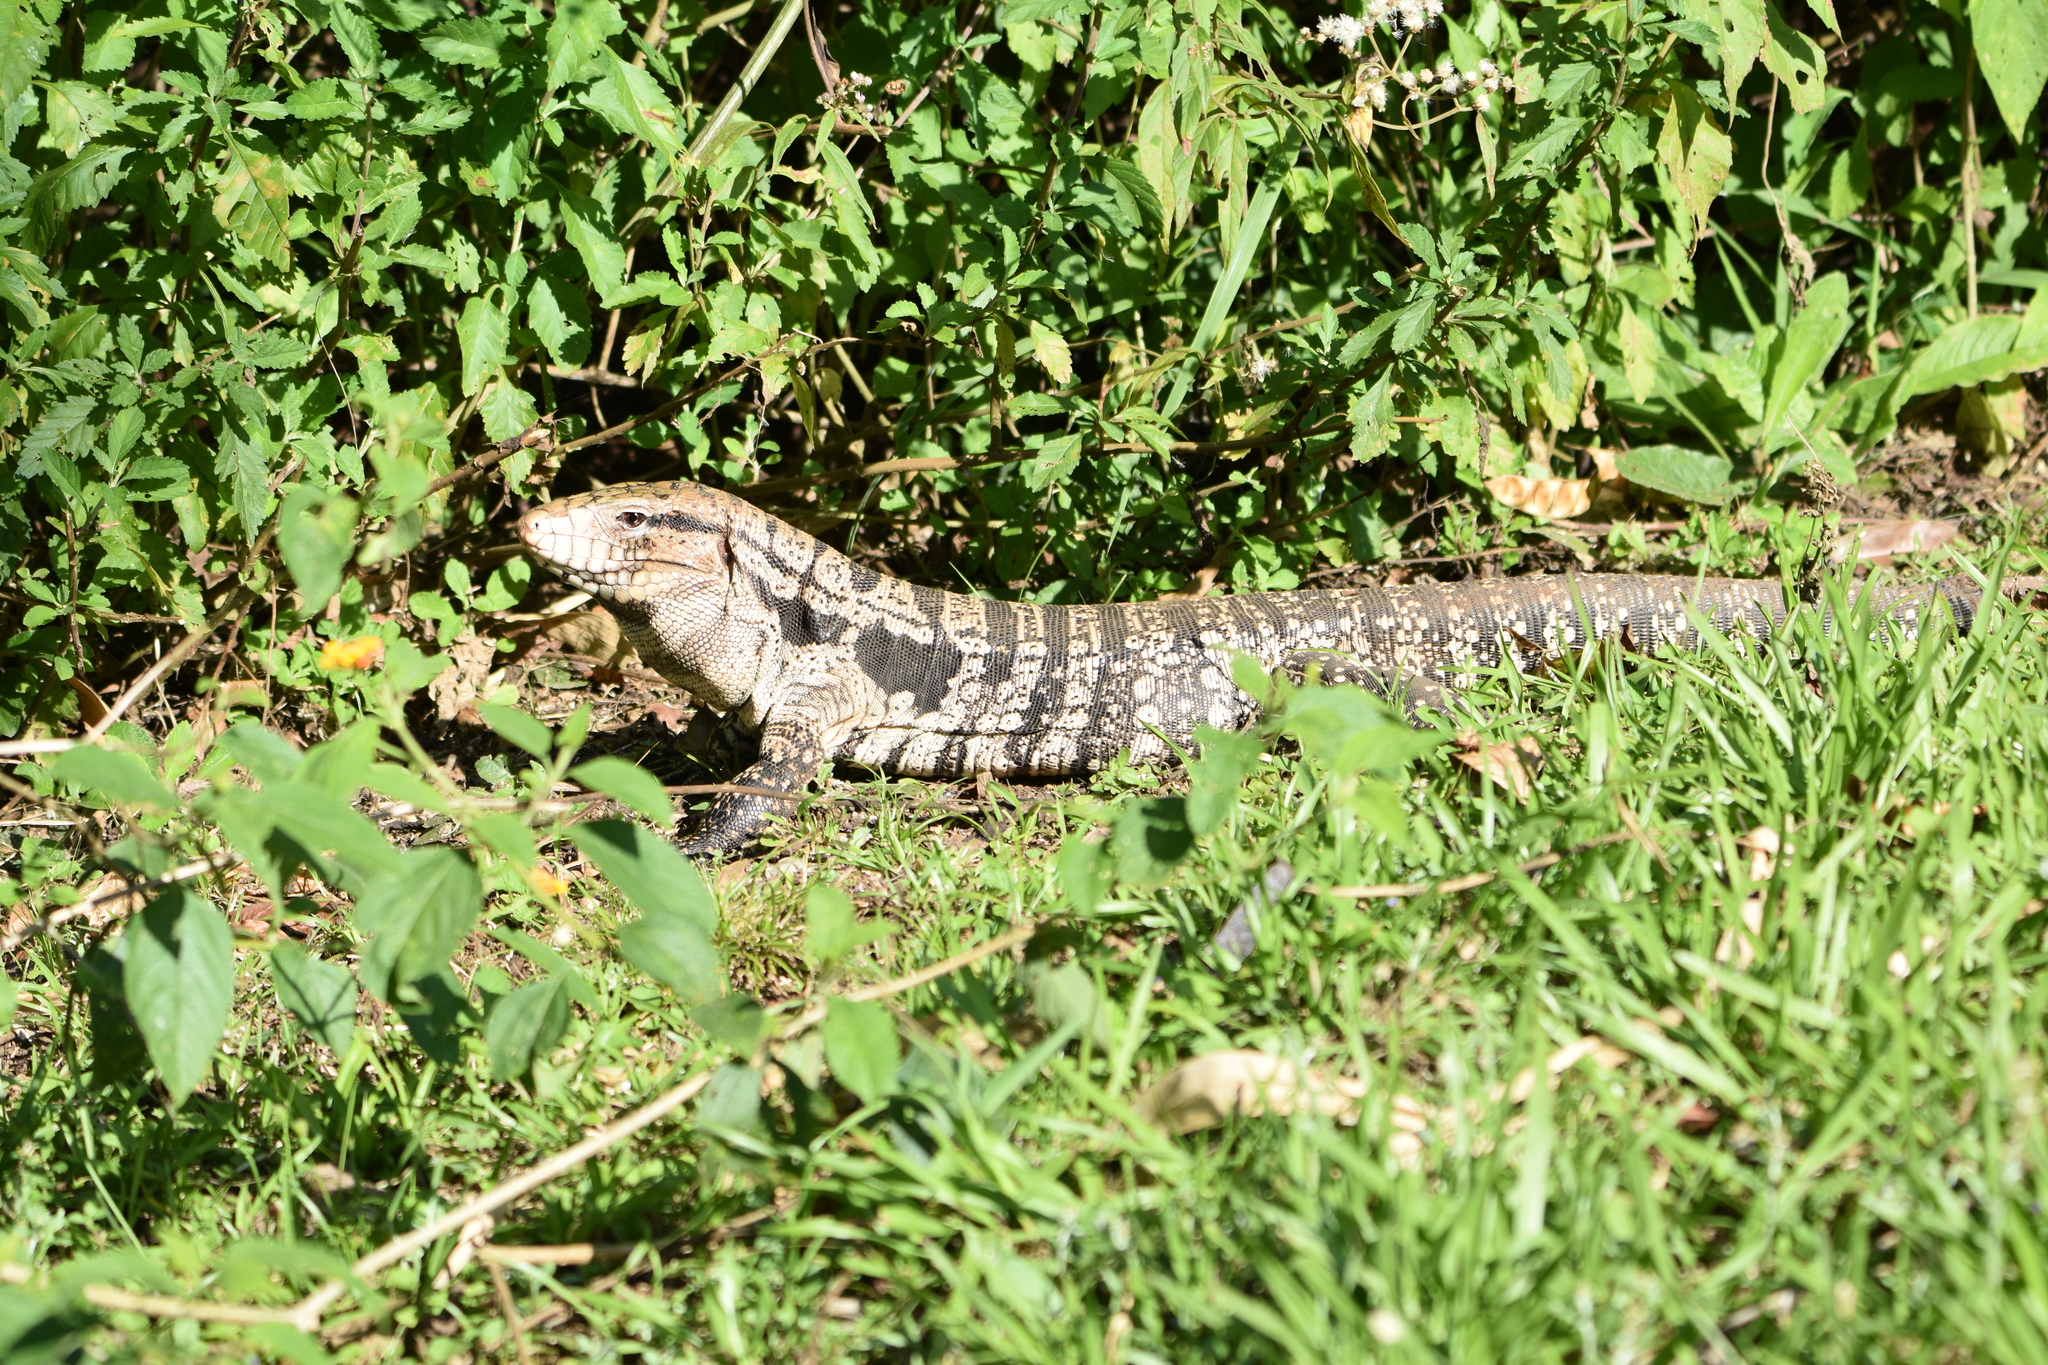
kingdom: Animalia
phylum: Chordata
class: Squamata
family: Teiidae
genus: Salvator
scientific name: Salvator merianae
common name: Argentine black and white tegu
